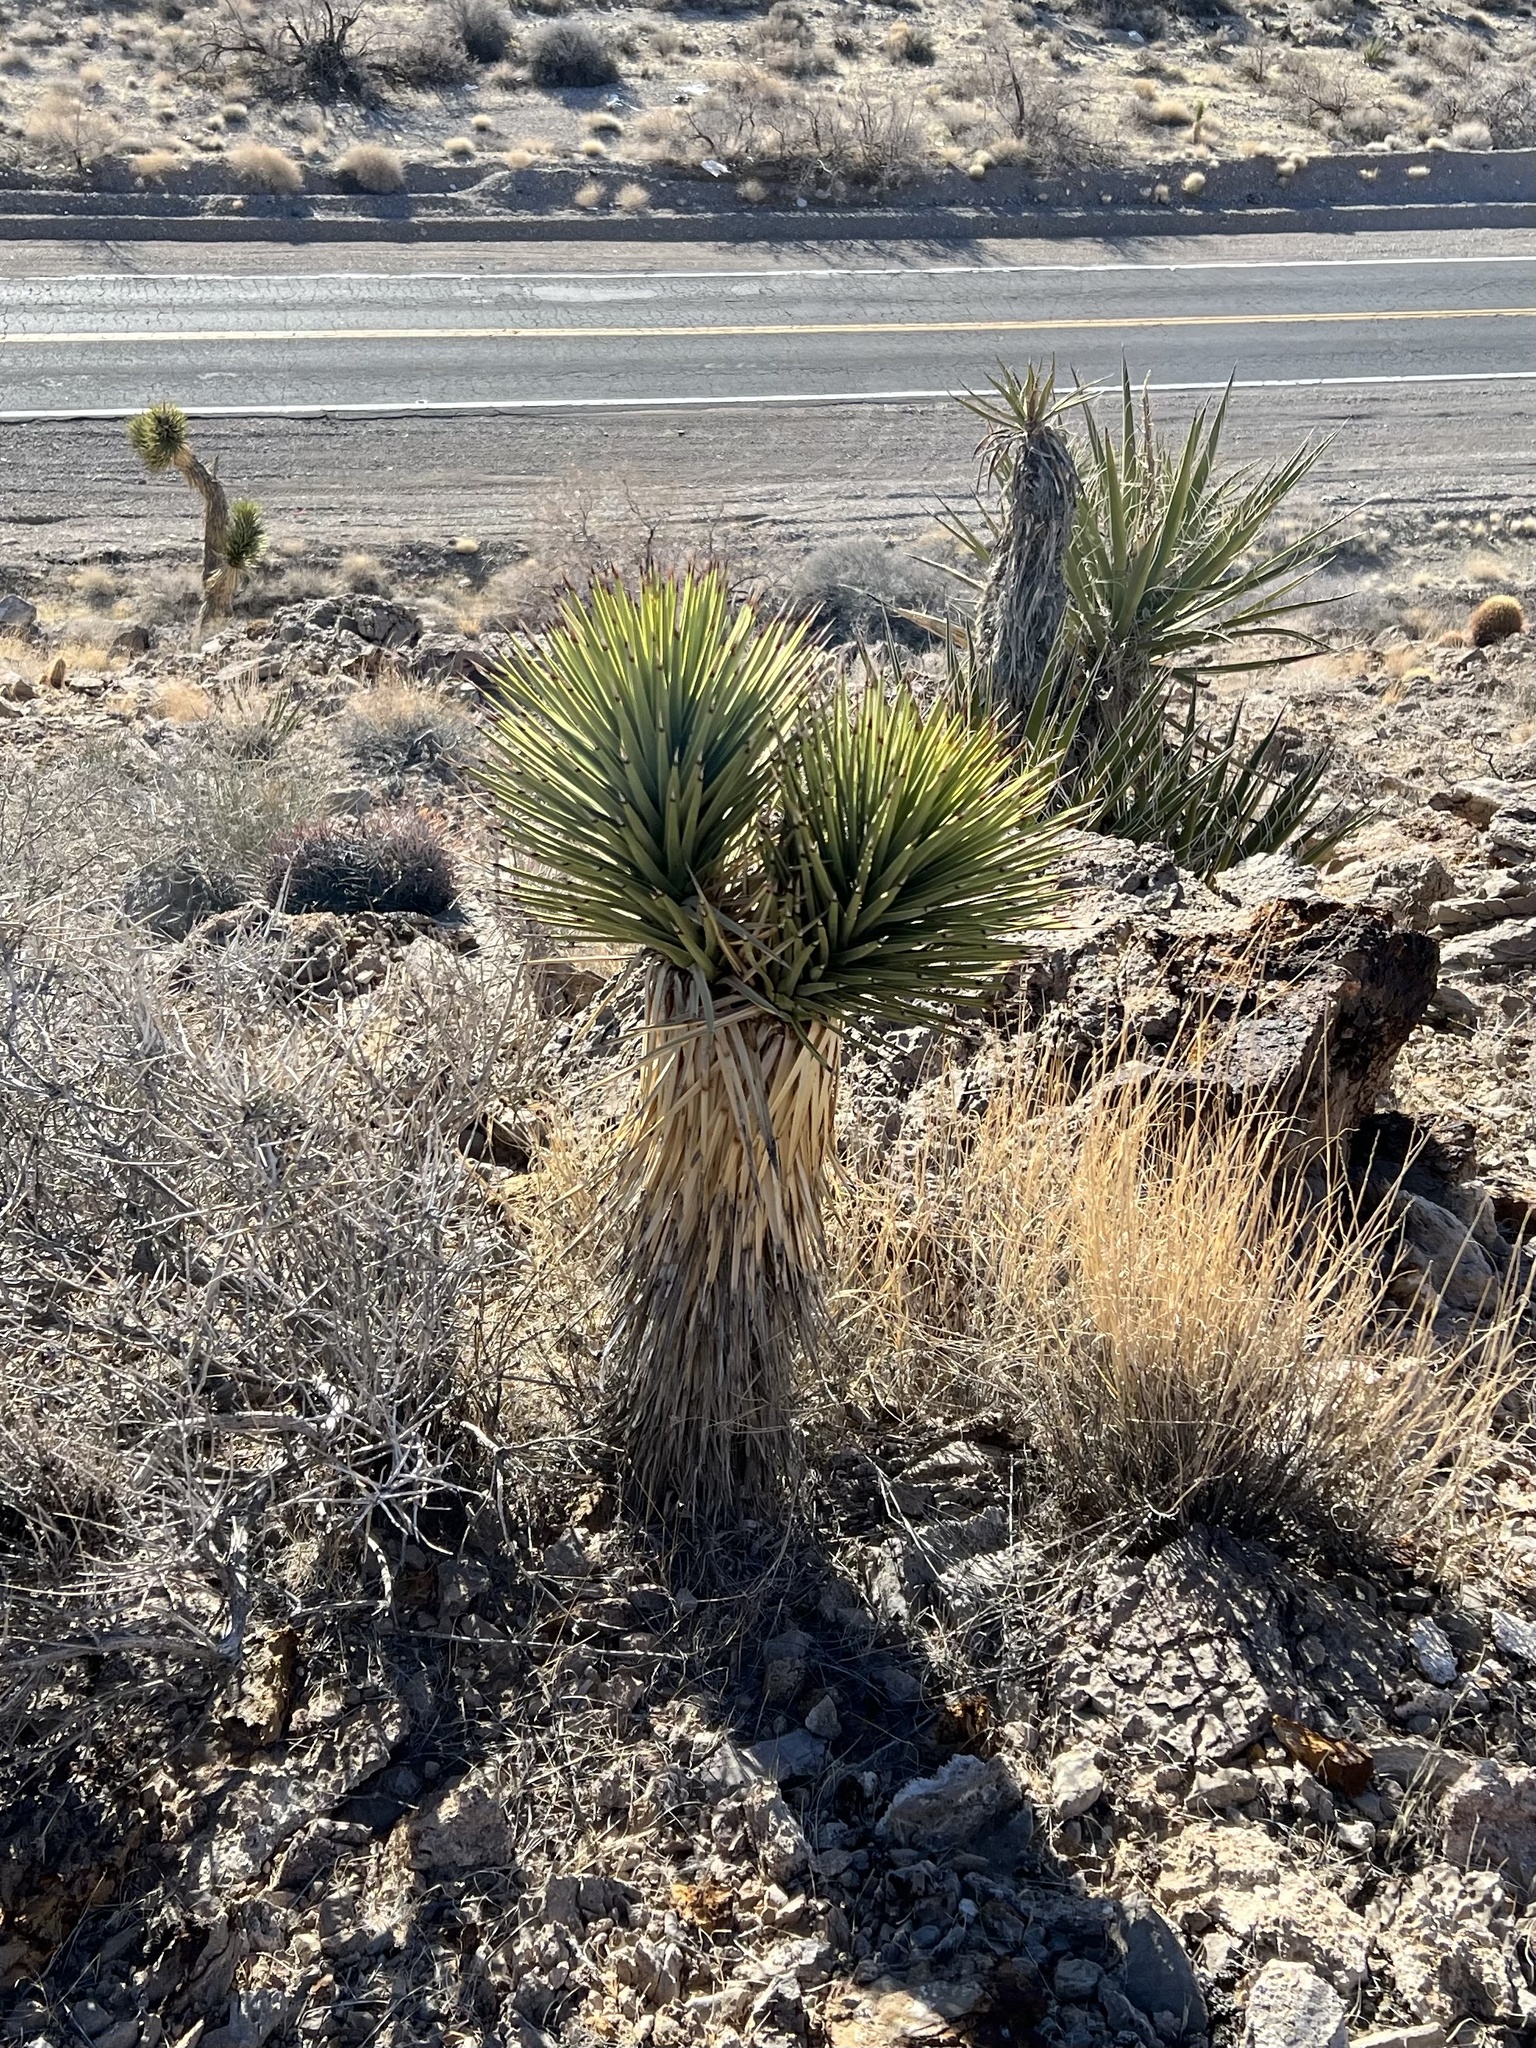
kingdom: Plantae
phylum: Tracheophyta
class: Liliopsida
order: Asparagales
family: Asparagaceae
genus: Yucca
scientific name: Yucca brevifolia
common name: Joshua tree
